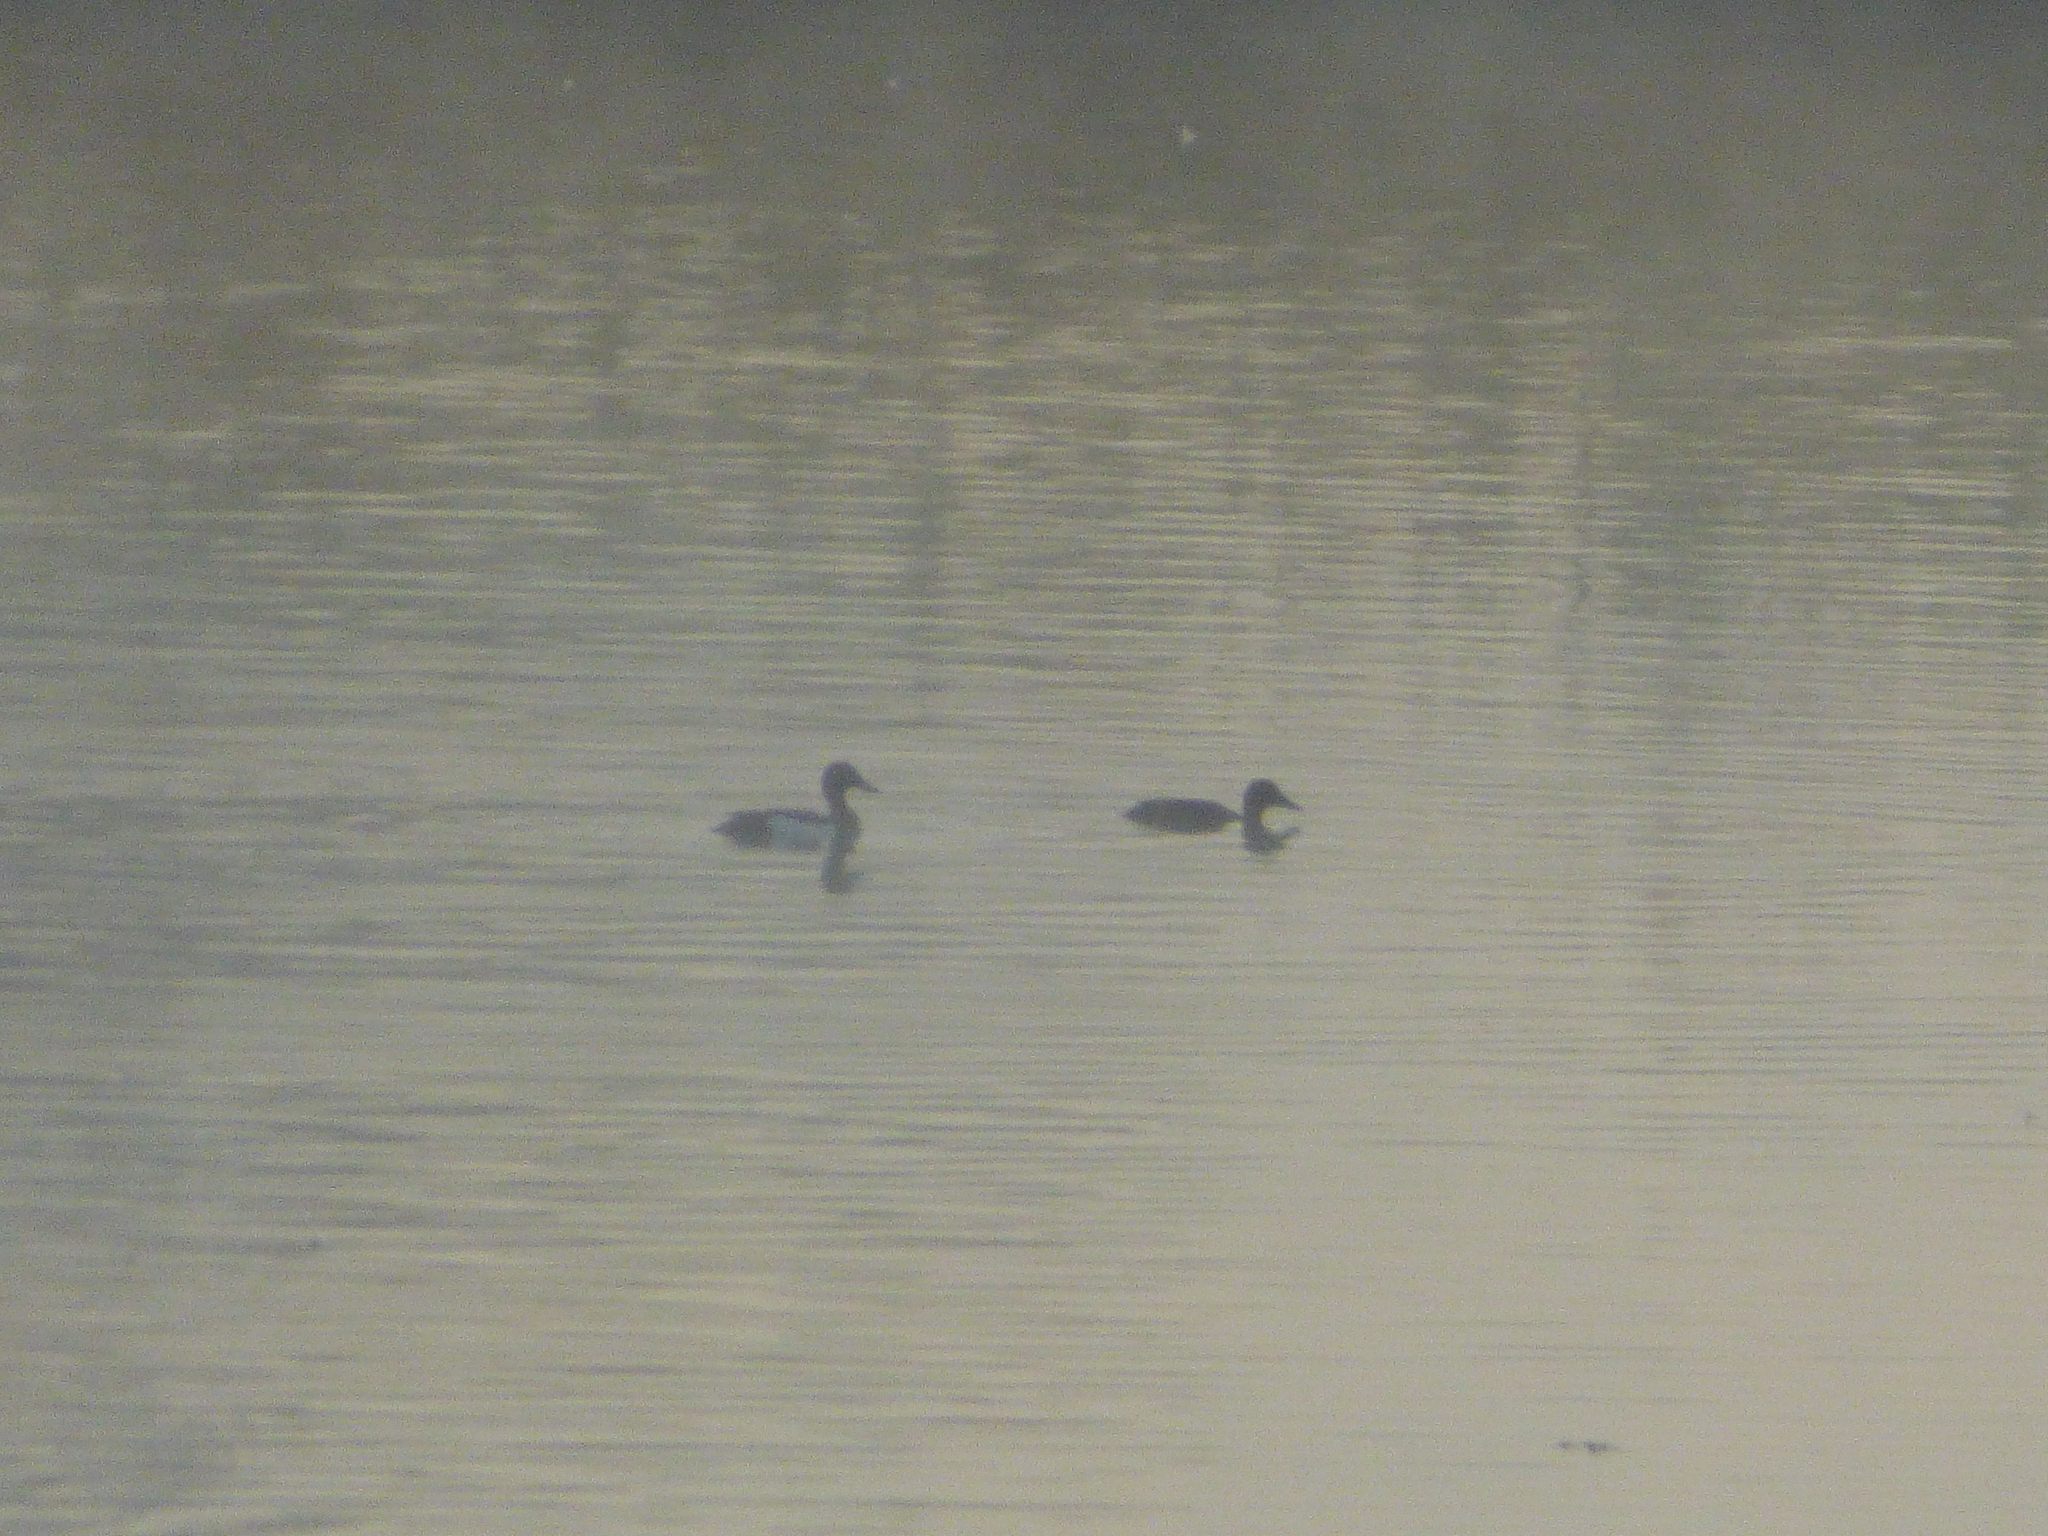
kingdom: Animalia
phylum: Chordata
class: Aves
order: Anseriformes
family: Anatidae
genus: Aythya
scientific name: Aythya fuligula
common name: Tufted duck
